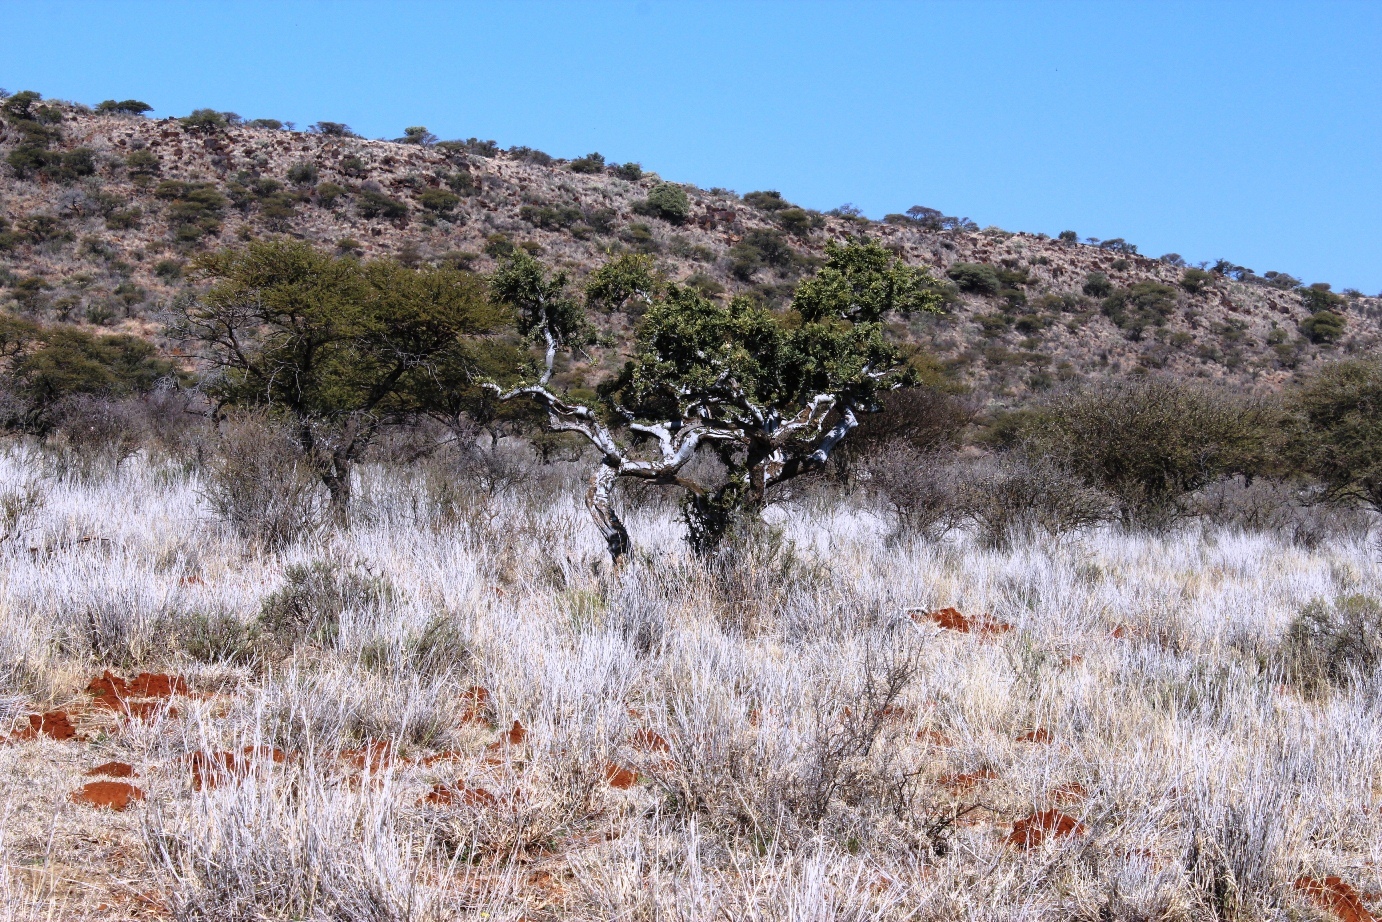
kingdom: Plantae
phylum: Tracheophyta
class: Magnoliopsida
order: Brassicales
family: Capparaceae
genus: Boscia
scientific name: Boscia albitrunca
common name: Caper bush
